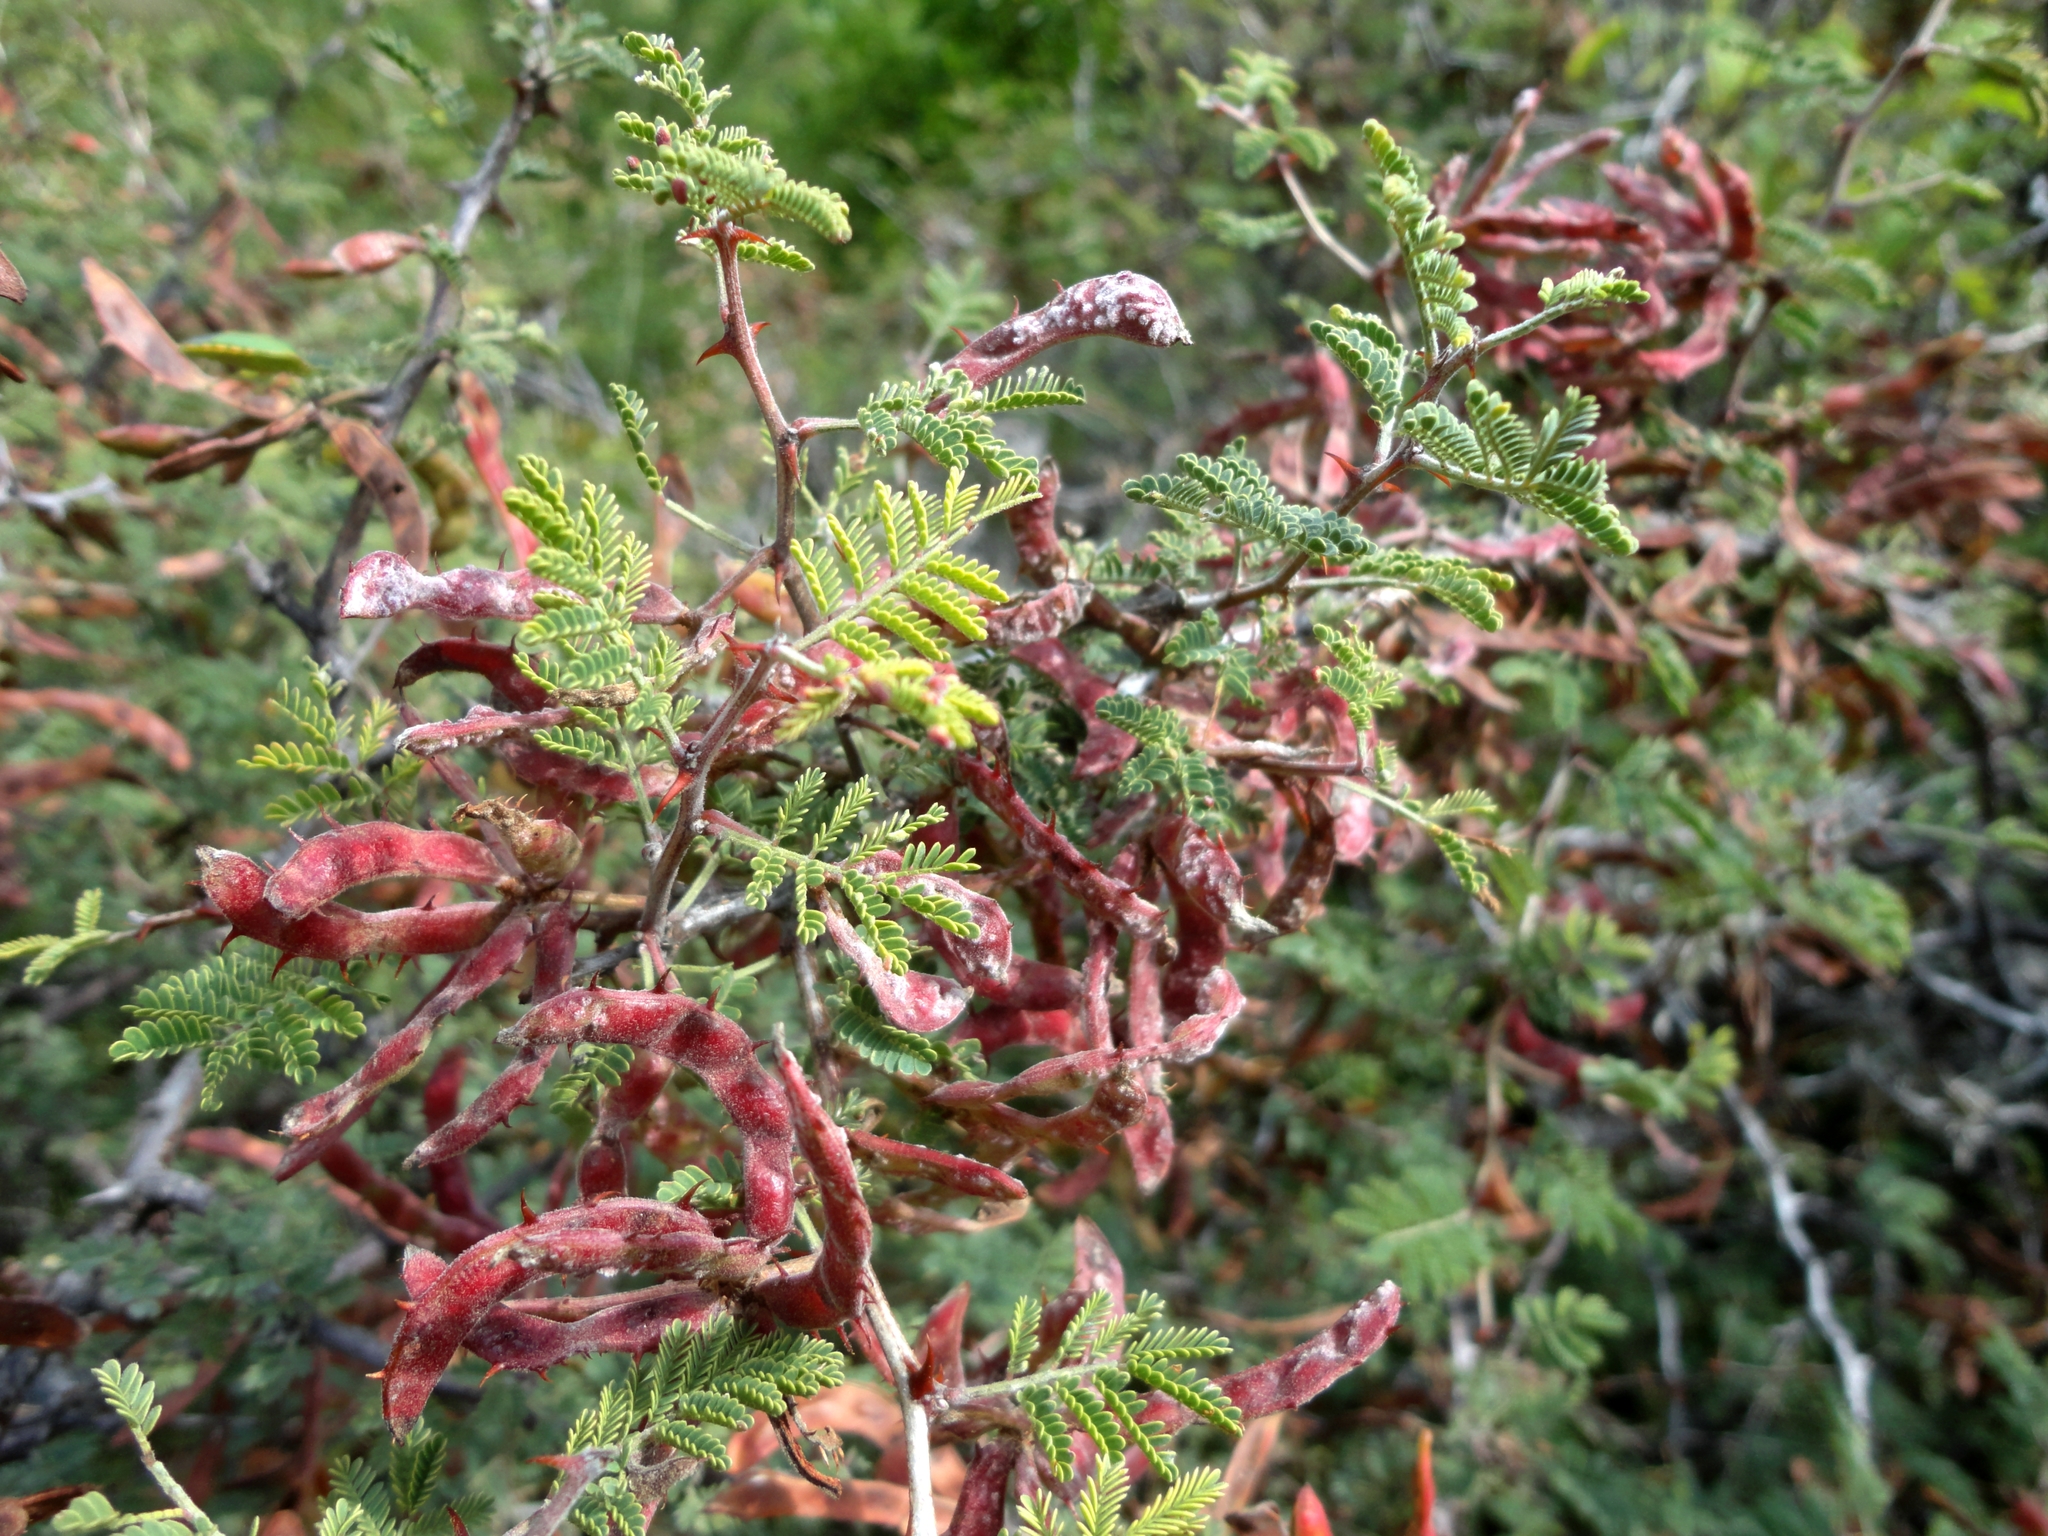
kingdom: Plantae
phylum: Tracheophyta
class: Magnoliopsida
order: Fabales
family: Fabaceae
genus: Mimosa
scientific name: Mimosa biuncifera
